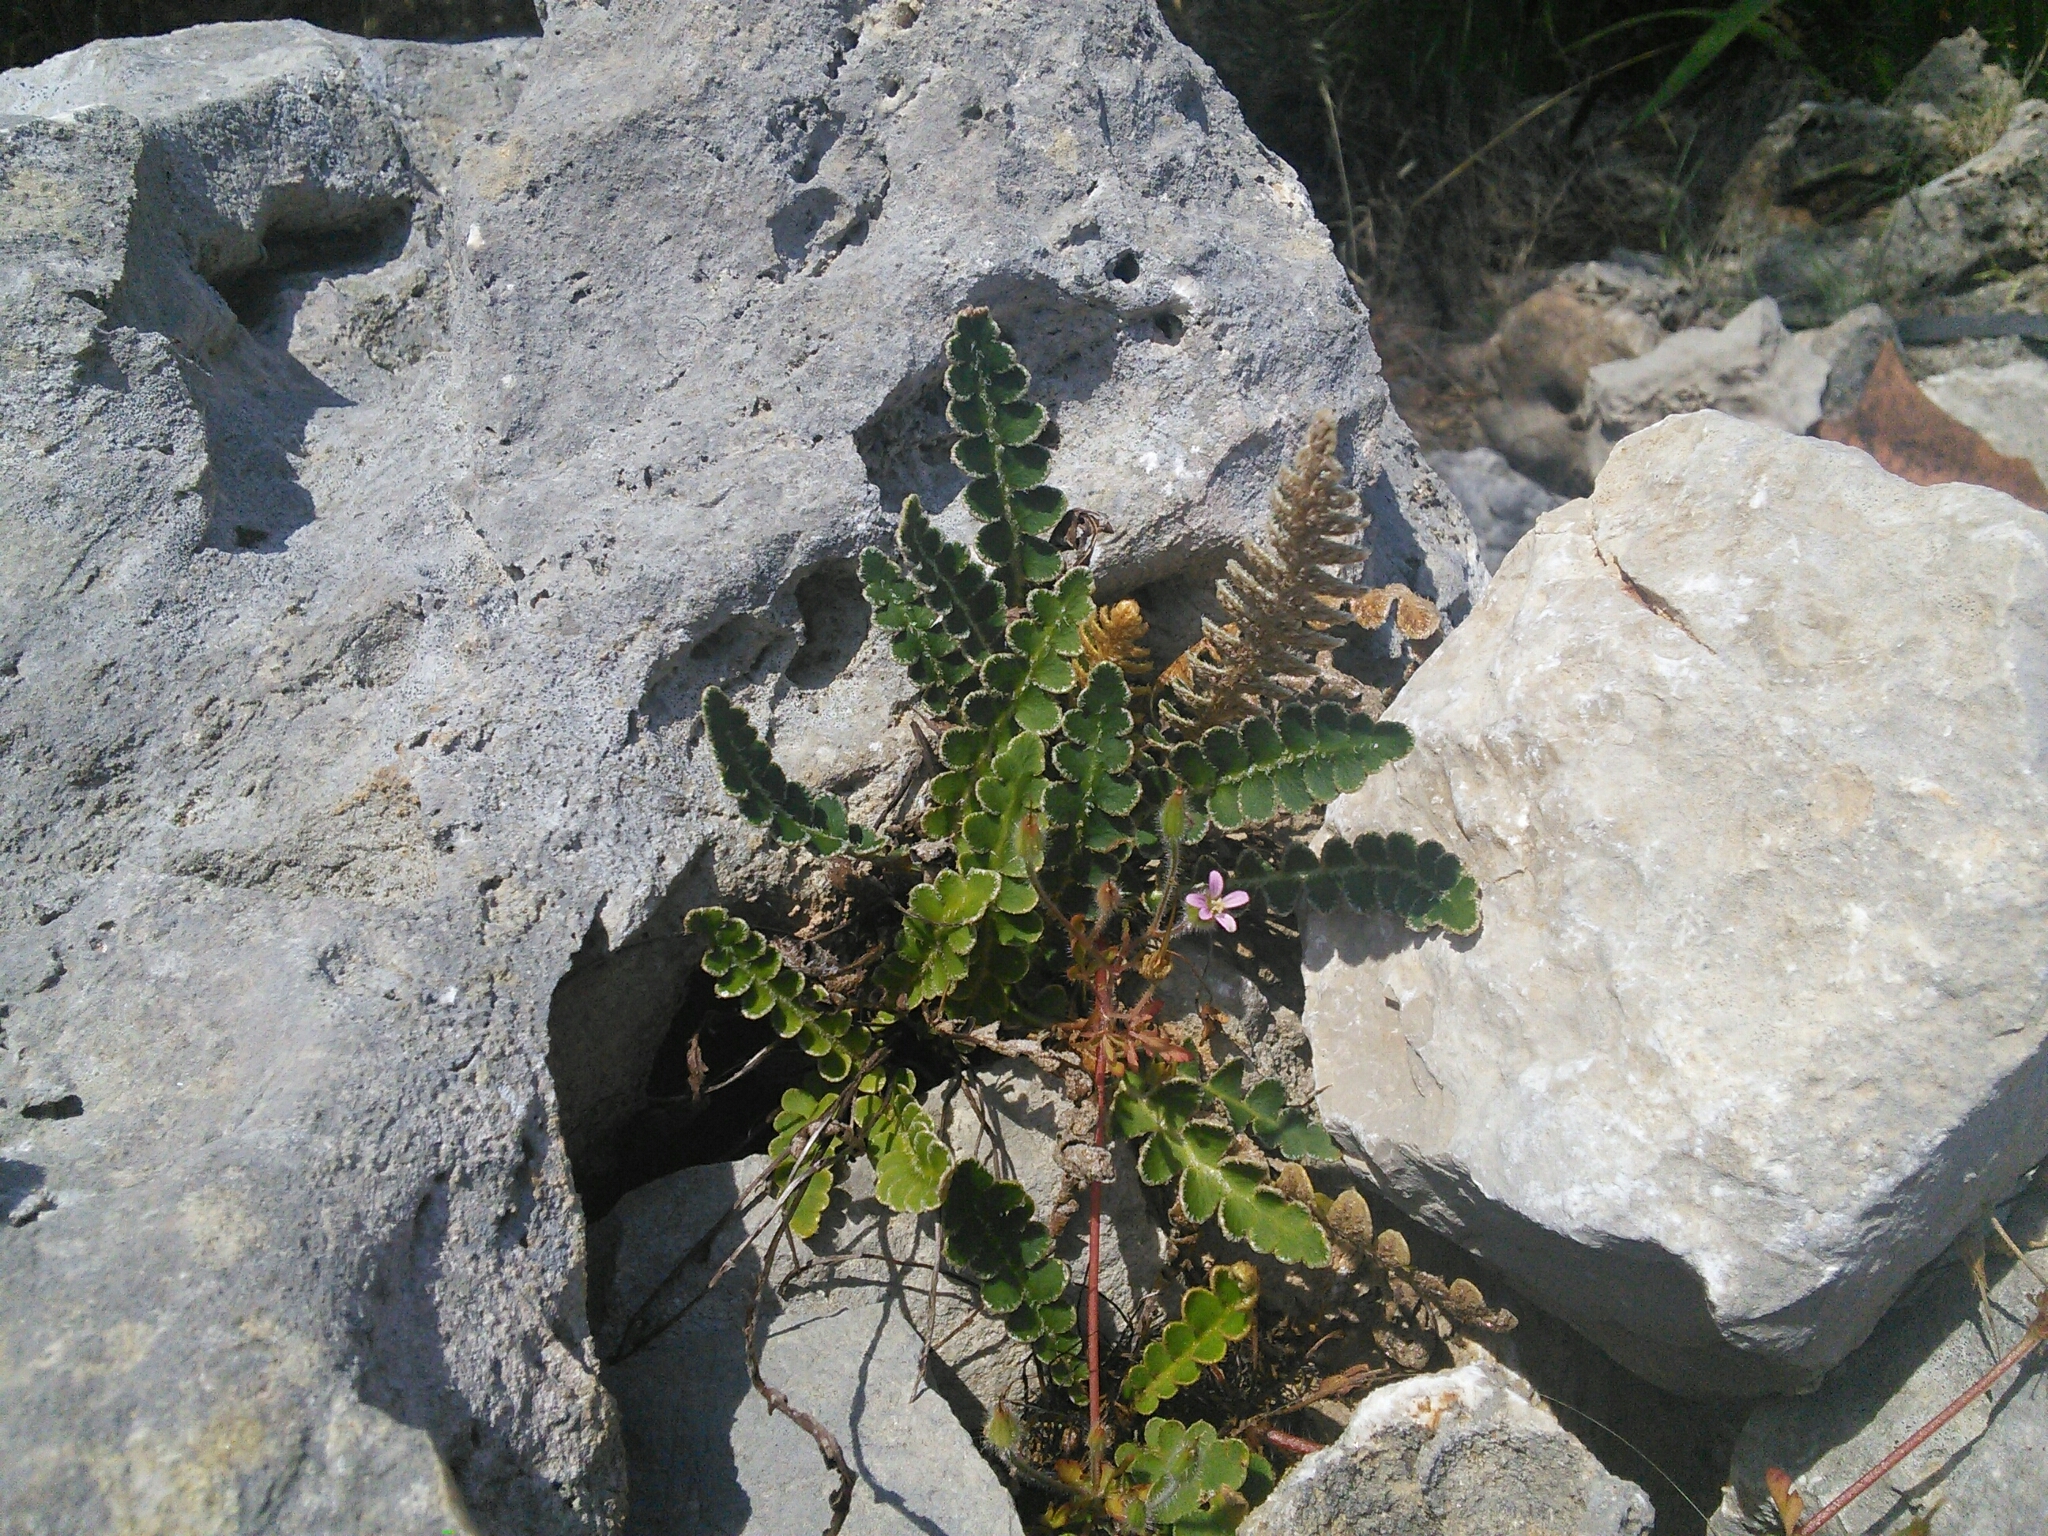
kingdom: Plantae
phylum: Tracheophyta
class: Polypodiopsida
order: Polypodiales
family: Aspleniaceae
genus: Asplenium
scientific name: Asplenium ceterach
